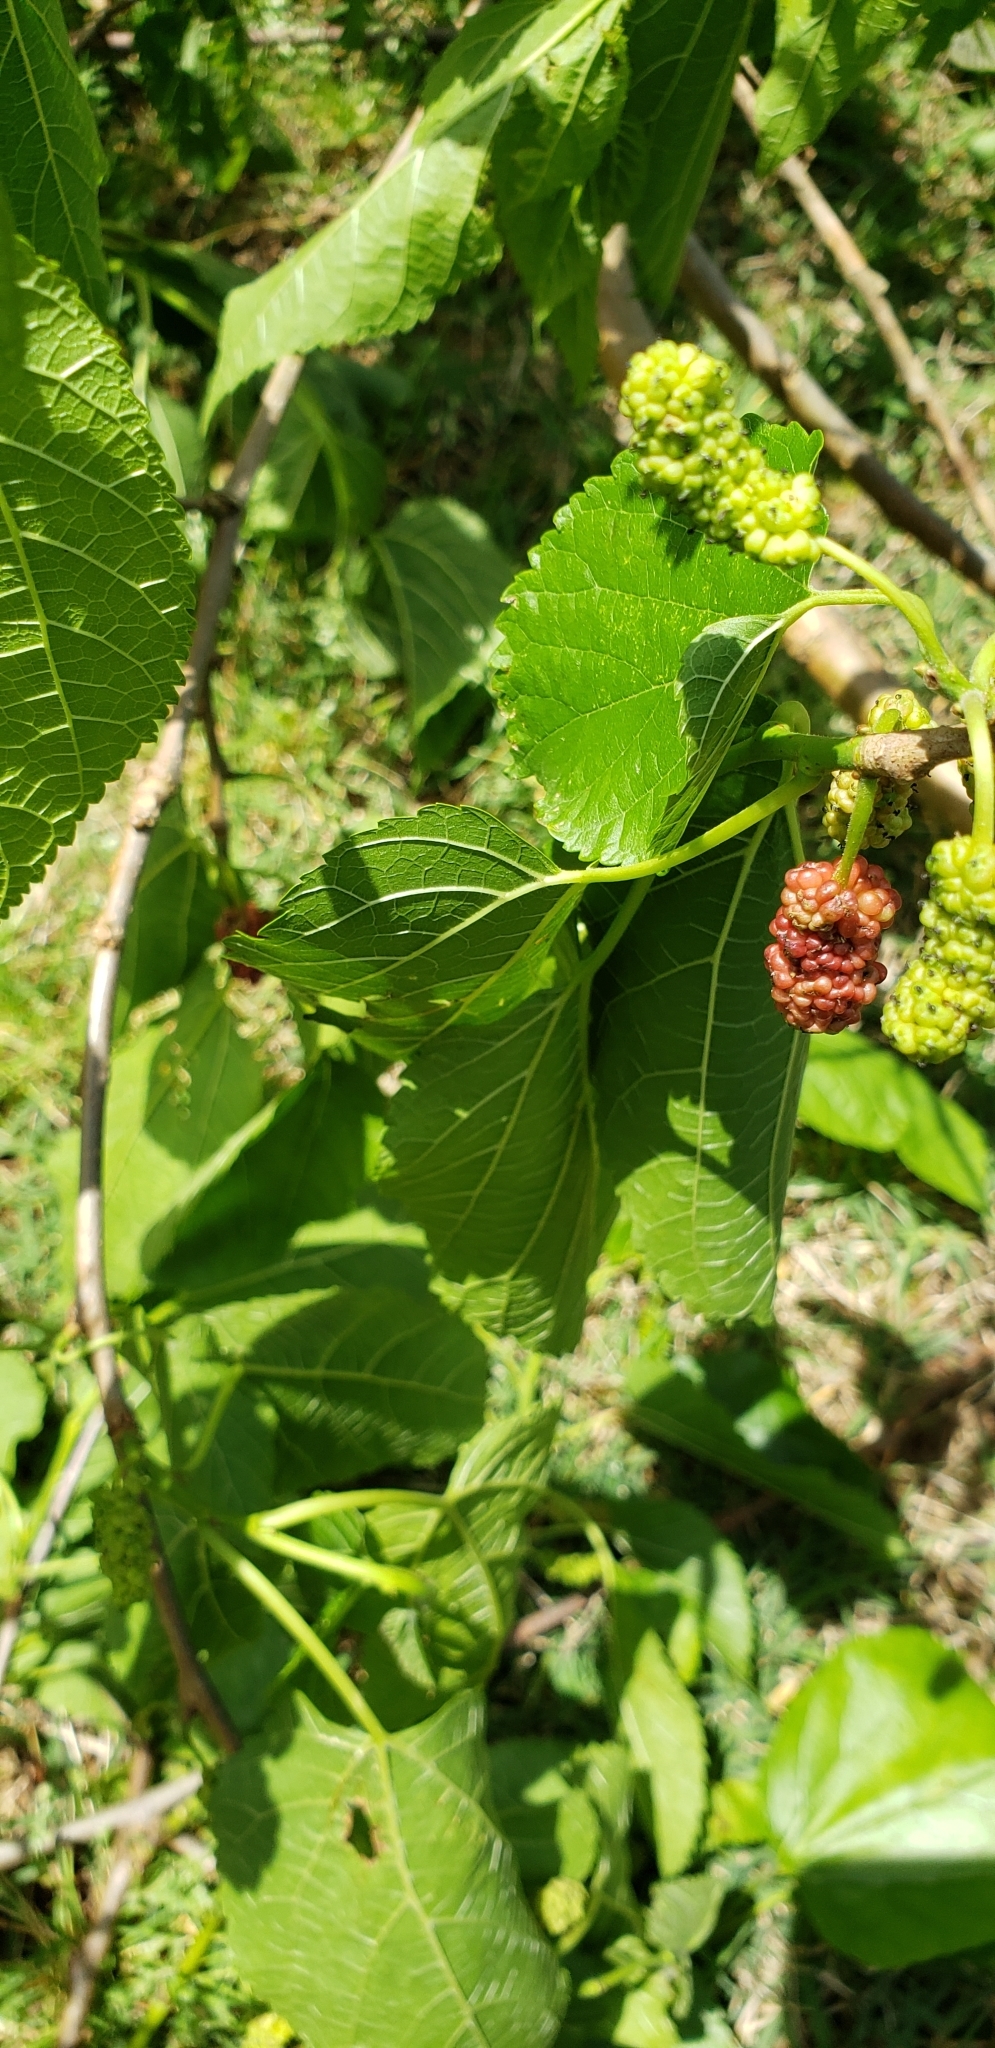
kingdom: Plantae
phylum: Tracheophyta
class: Magnoliopsida
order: Rosales
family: Moraceae
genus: Morus
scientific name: Morus alba
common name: White mulberry
